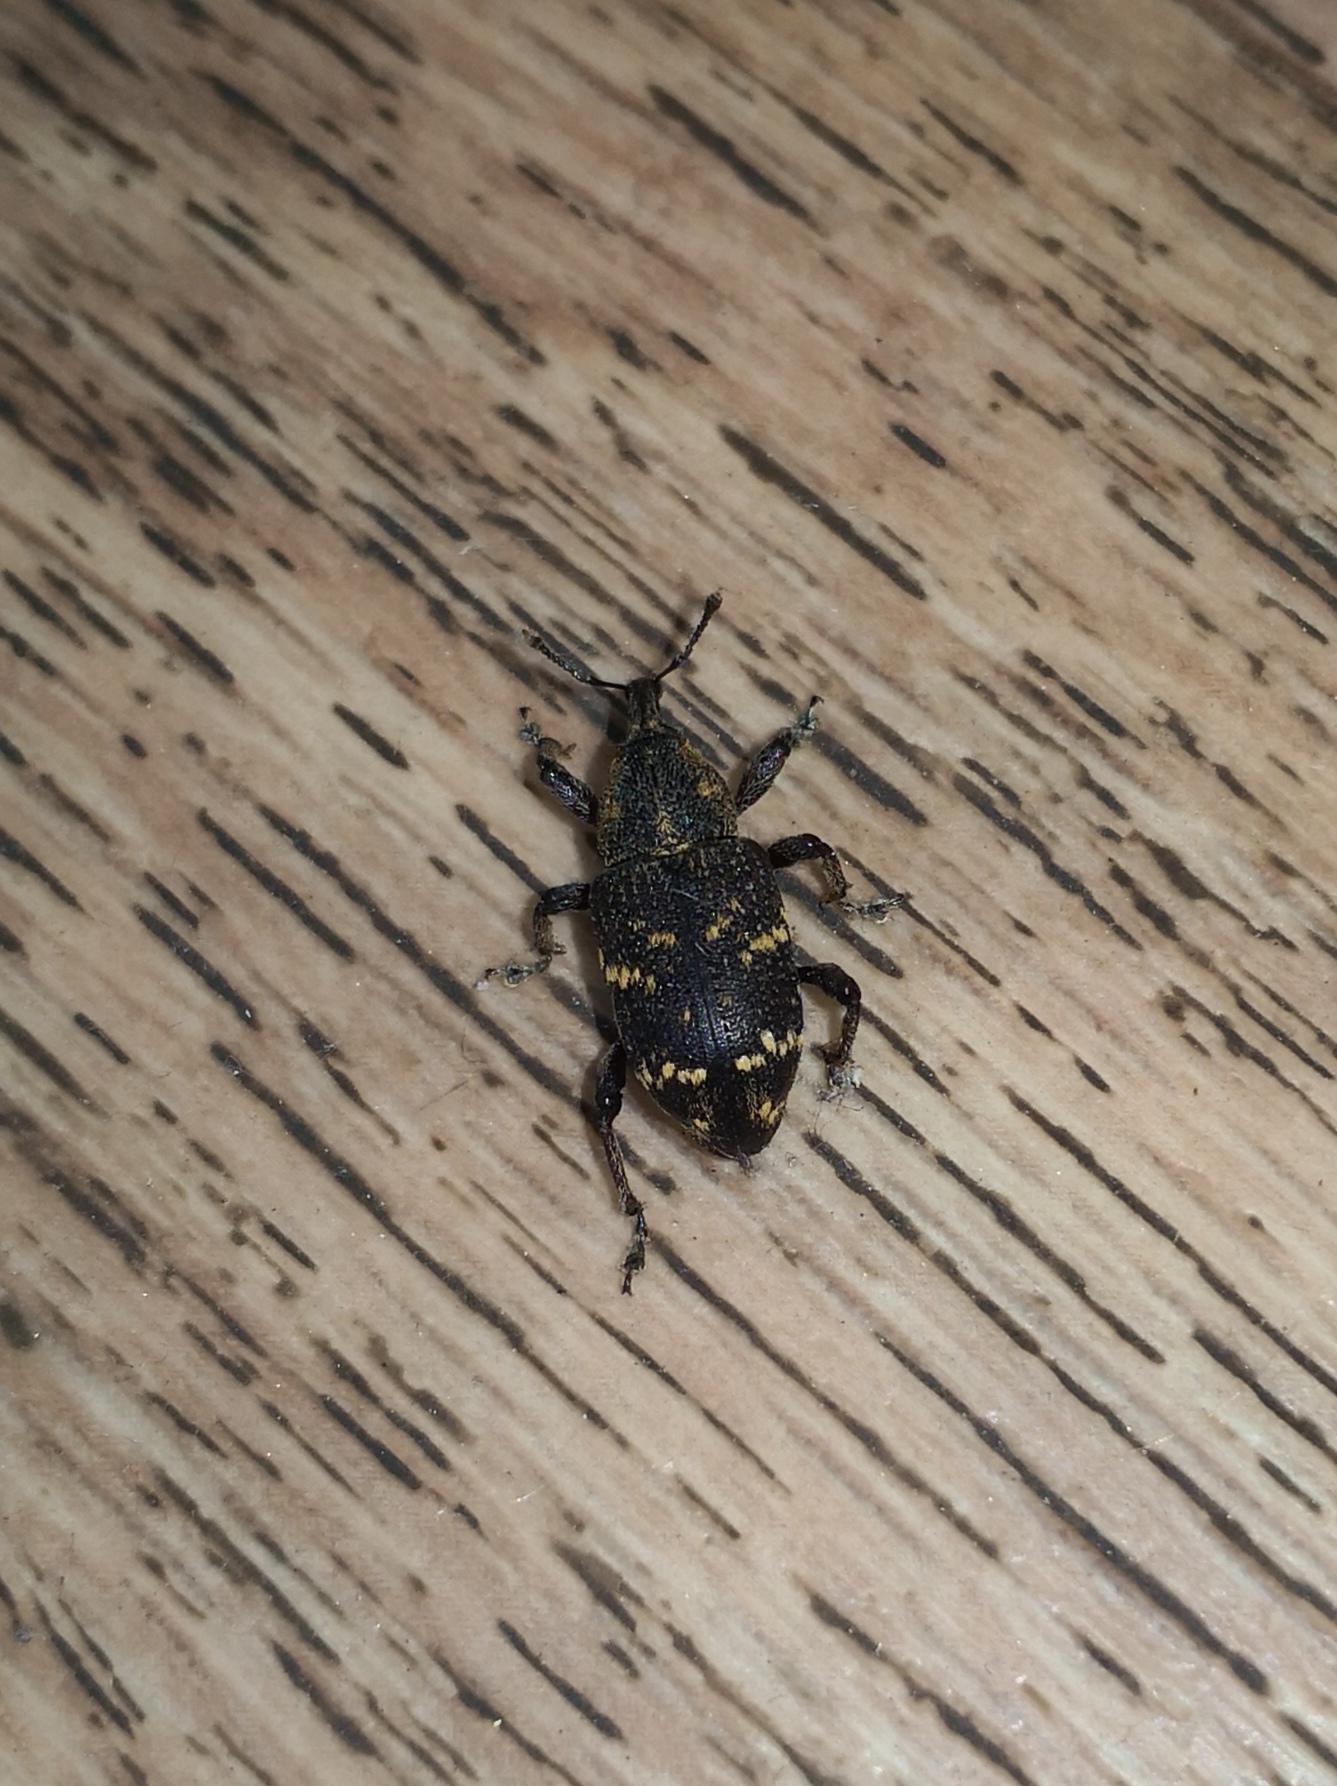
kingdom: Animalia
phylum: Arthropoda
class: Insecta
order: Coleoptera
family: Curculionidae
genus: Hylobius
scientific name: Hylobius abietis
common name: Large pine weevil
